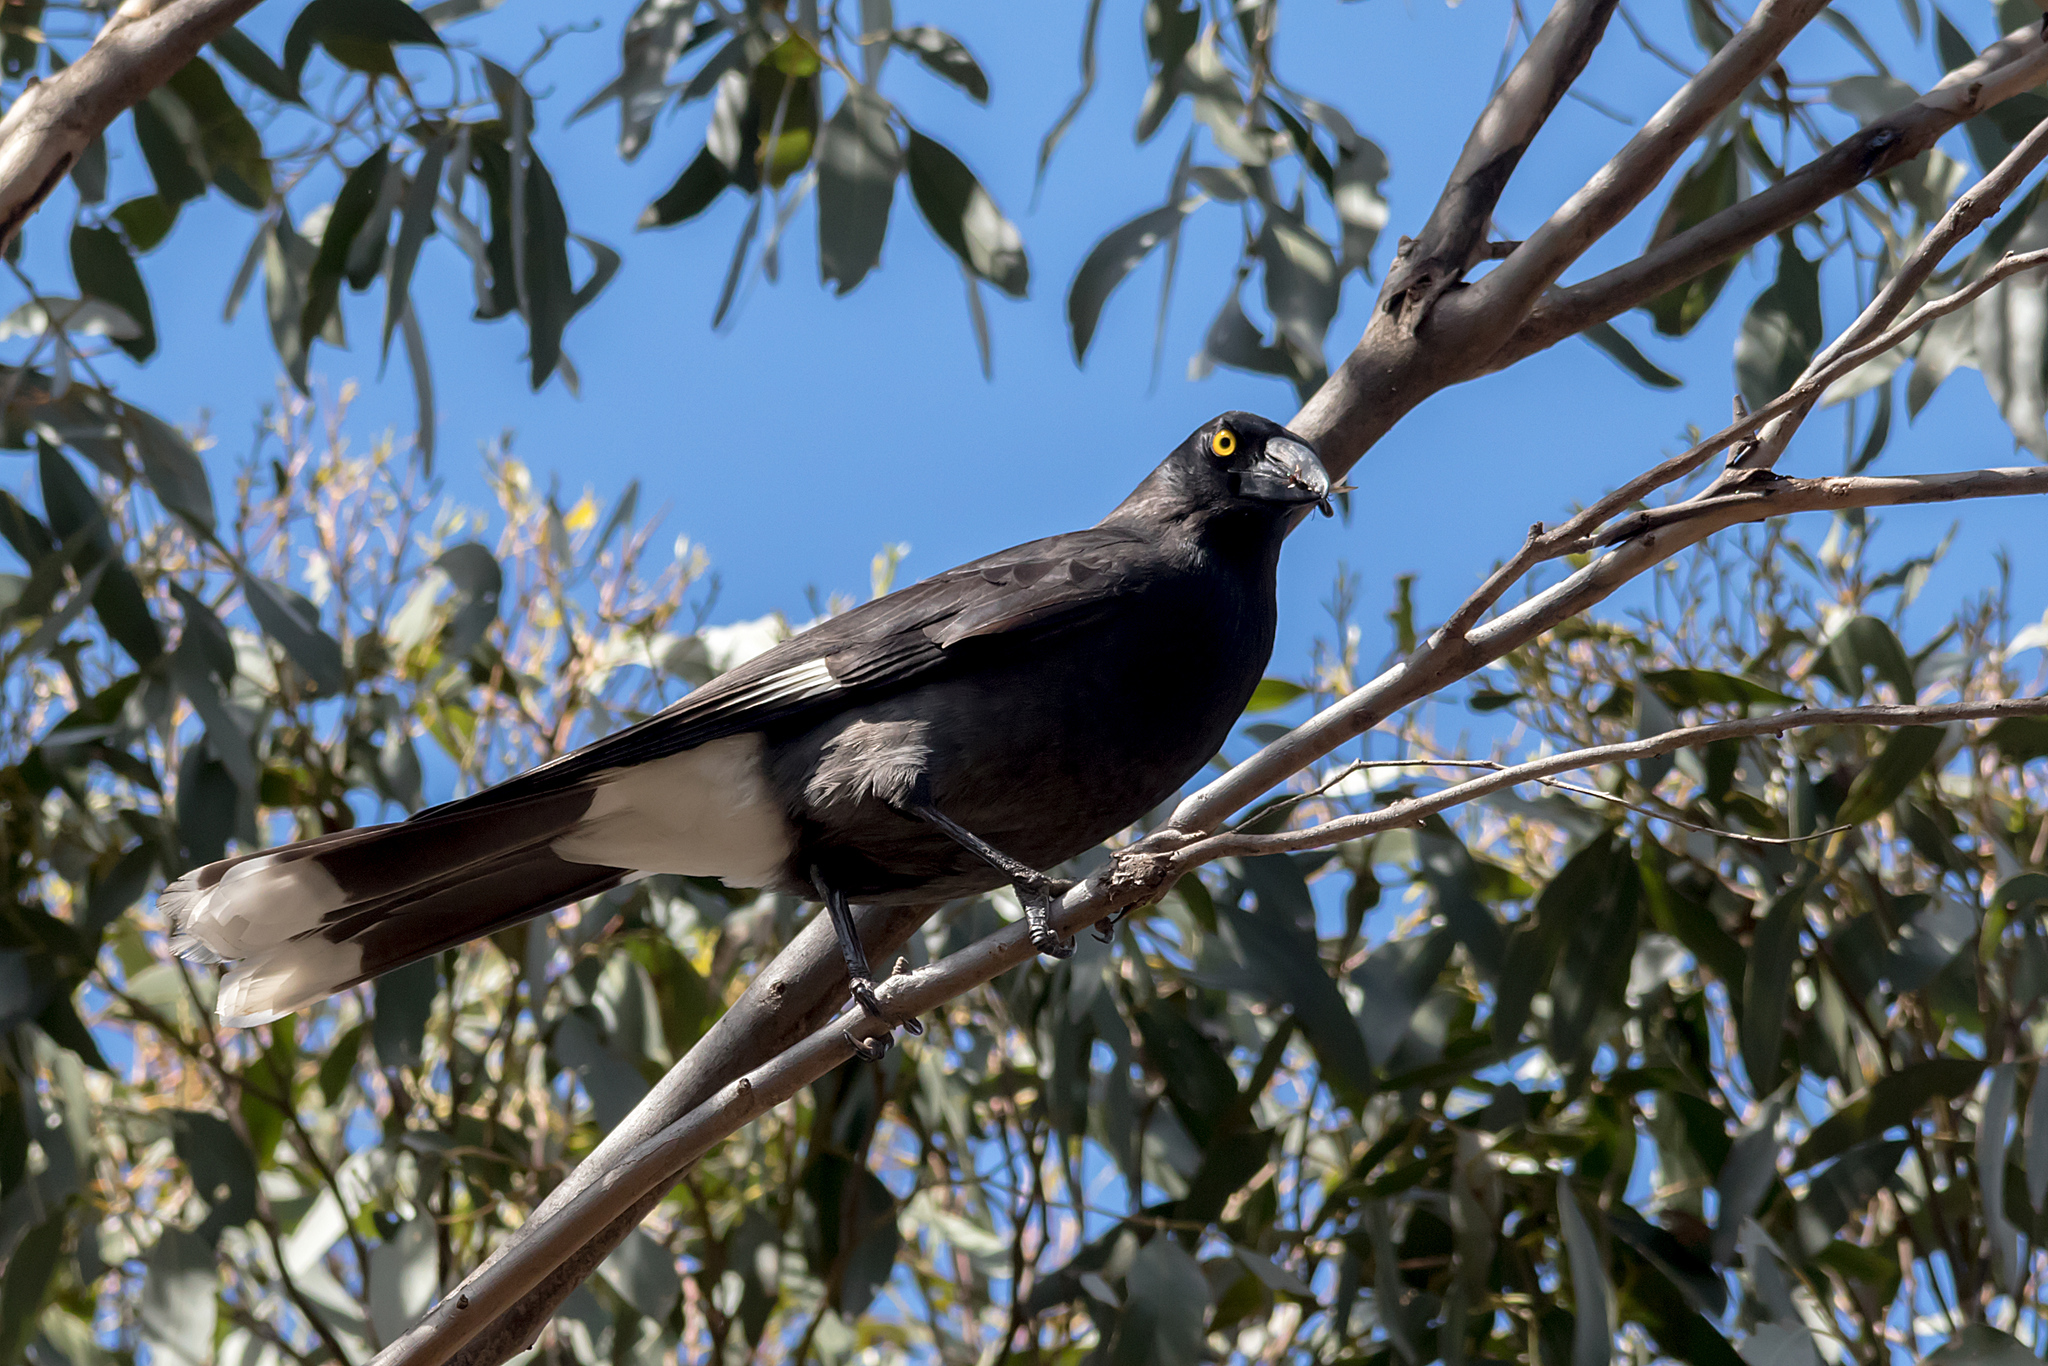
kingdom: Animalia
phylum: Chordata
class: Aves
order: Passeriformes
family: Cracticidae
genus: Strepera
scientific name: Strepera graculina
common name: Pied currawong
